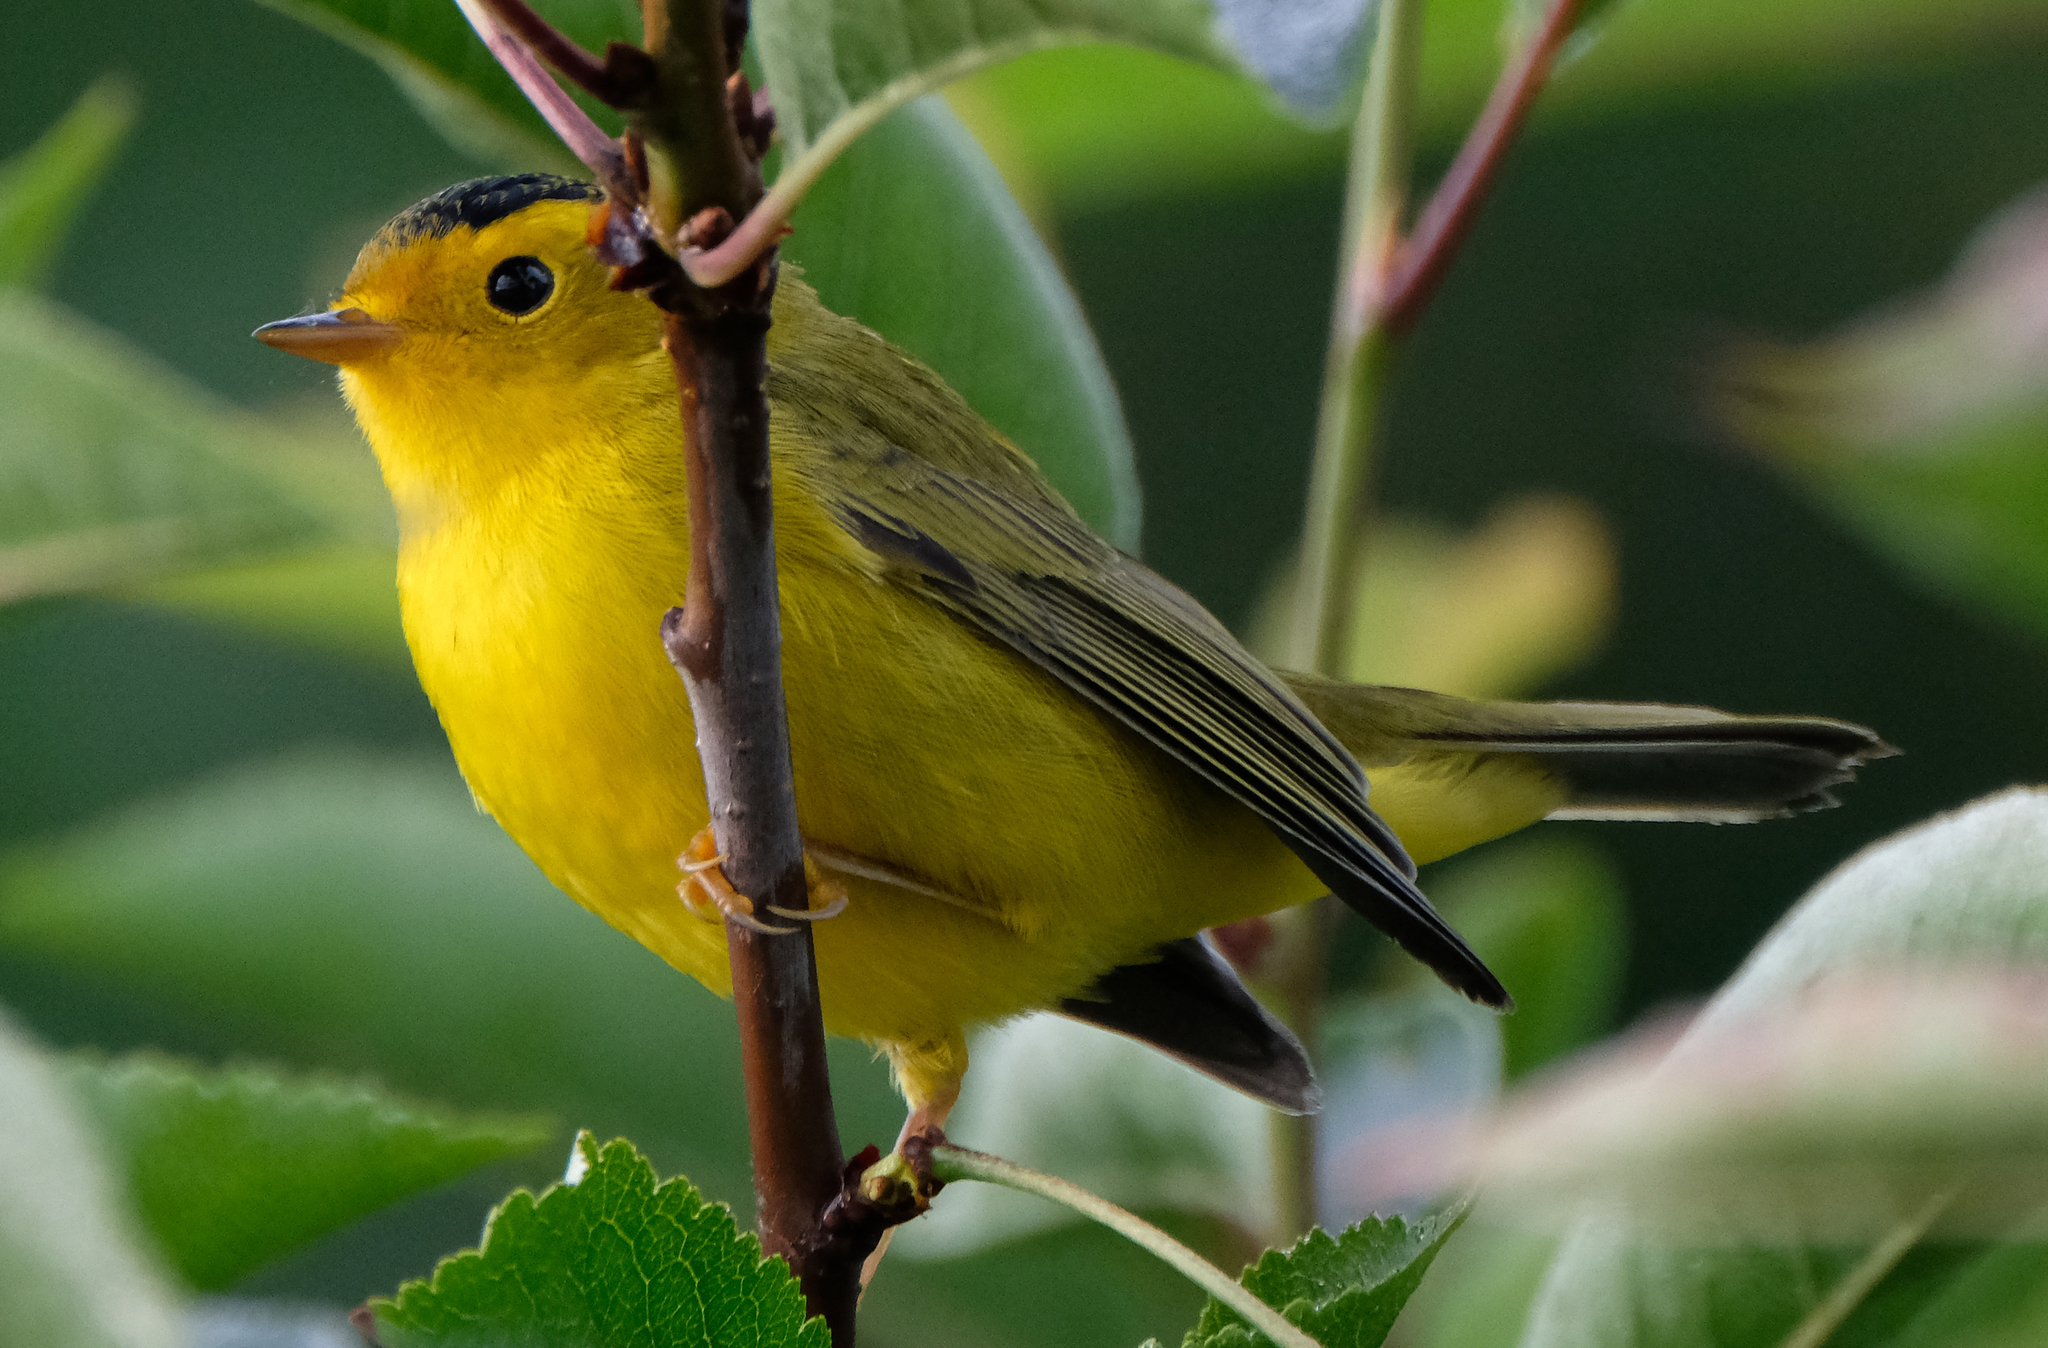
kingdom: Animalia
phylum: Chordata
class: Aves
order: Passeriformes
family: Parulidae
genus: Cardellina
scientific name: Cardellina pusilla
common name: Wilson's warbler
